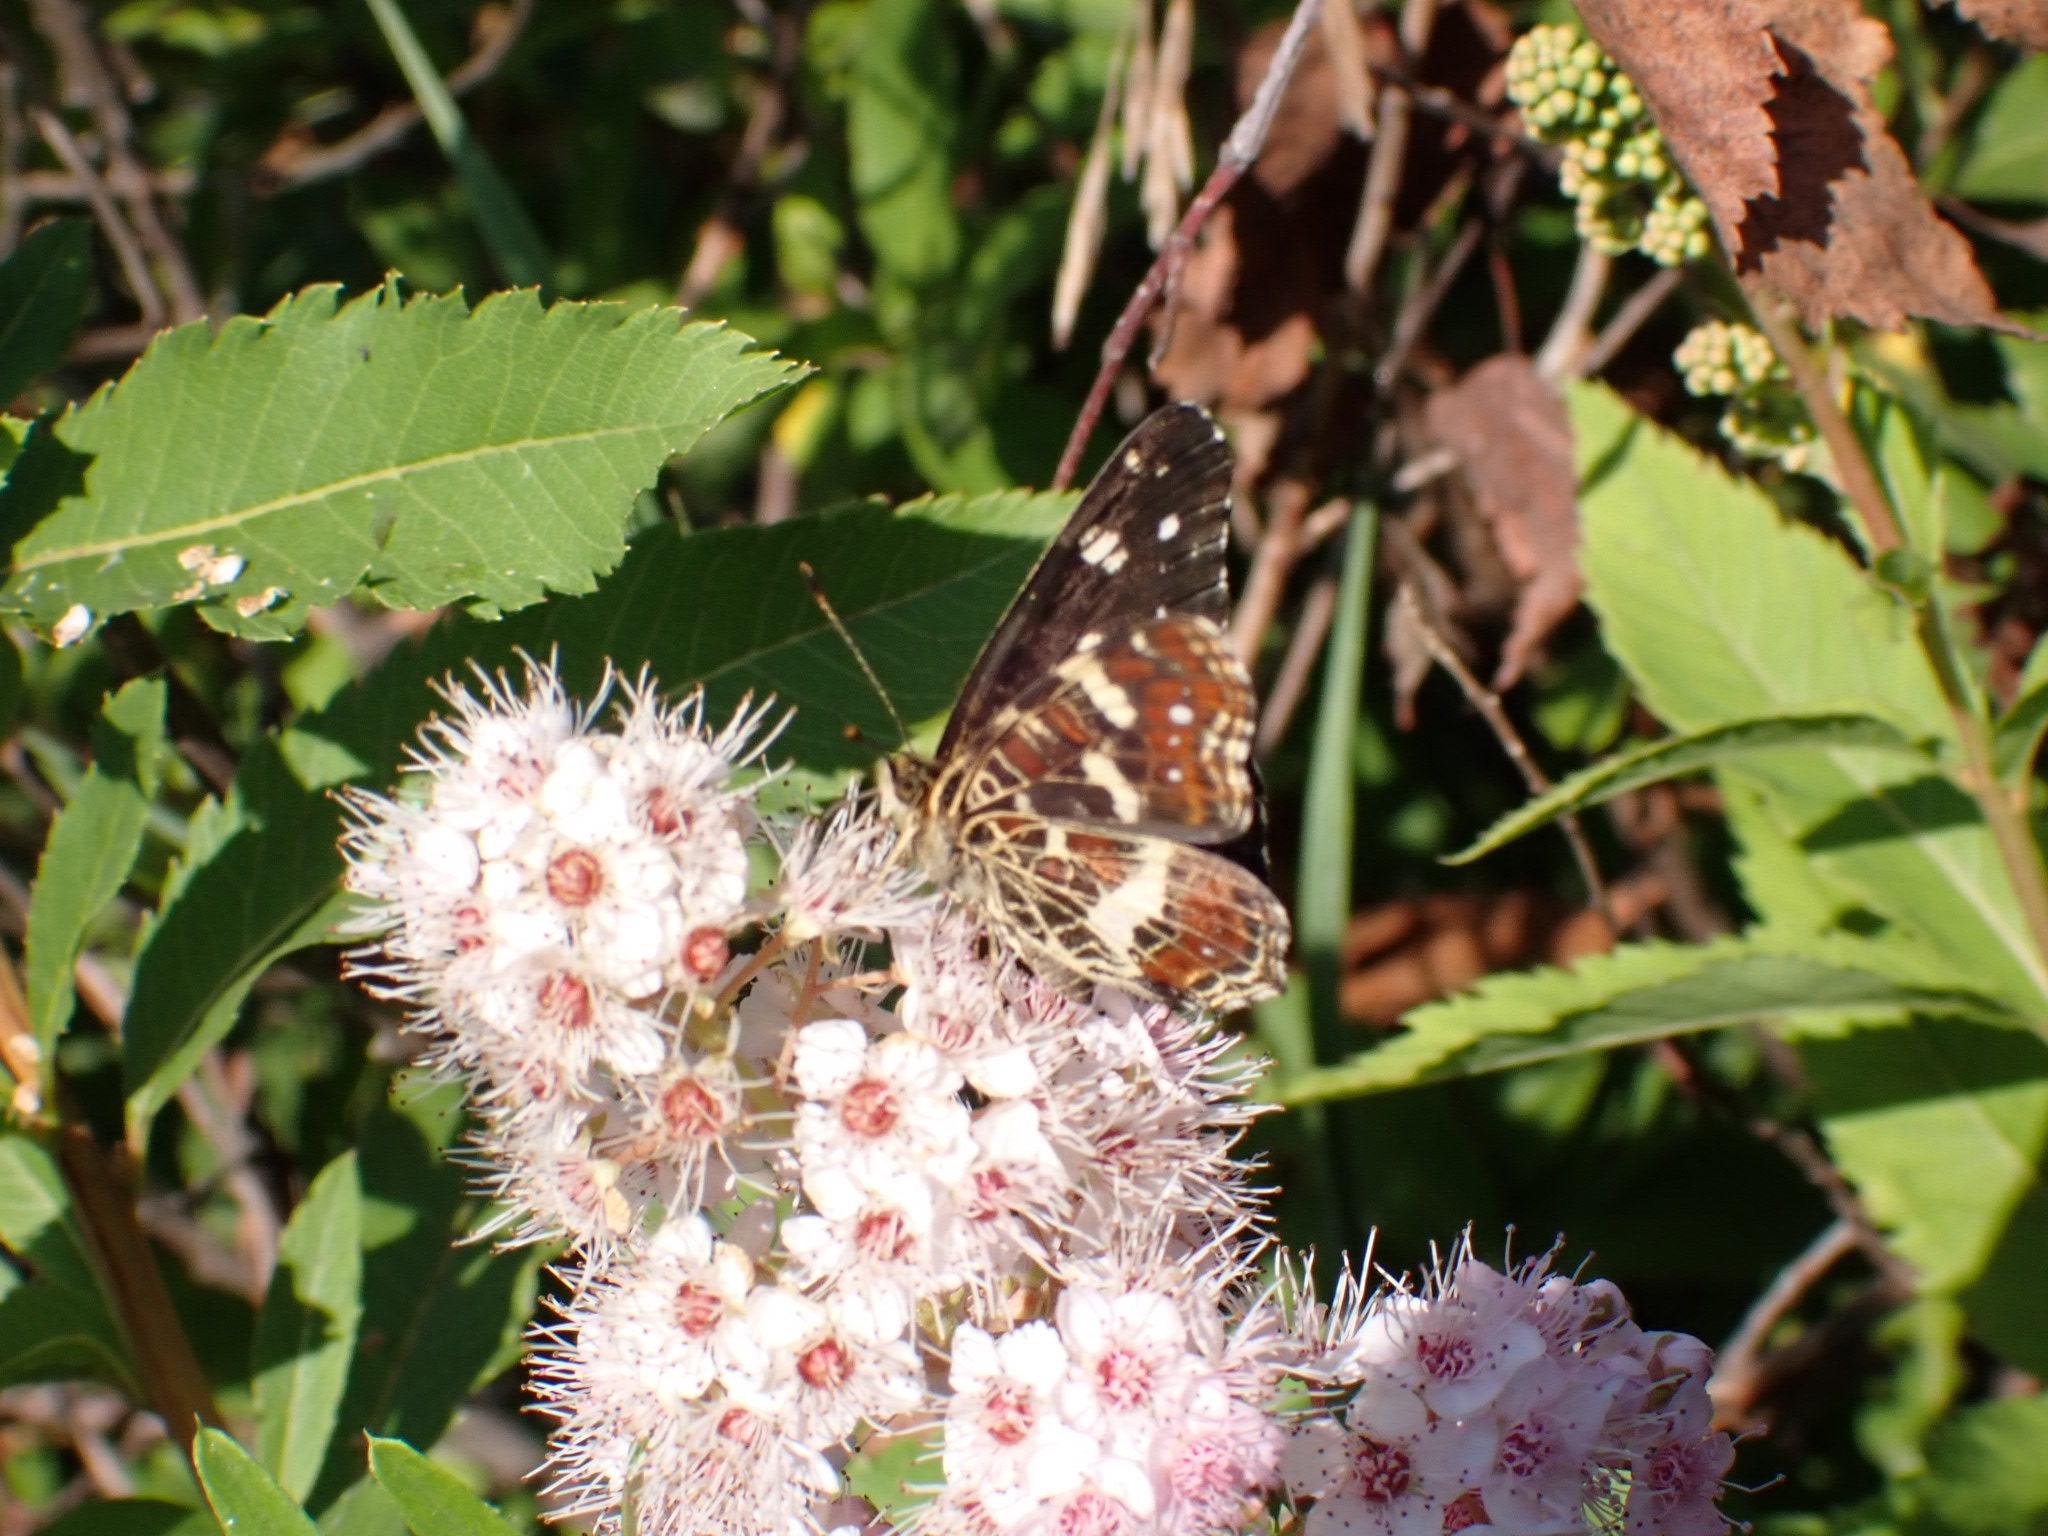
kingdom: Animalia
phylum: Arthropoda
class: Insecta
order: Lepidoptera
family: Nymphalidae
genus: Araschnia
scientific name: Araschnia levana
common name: Map butterfly
